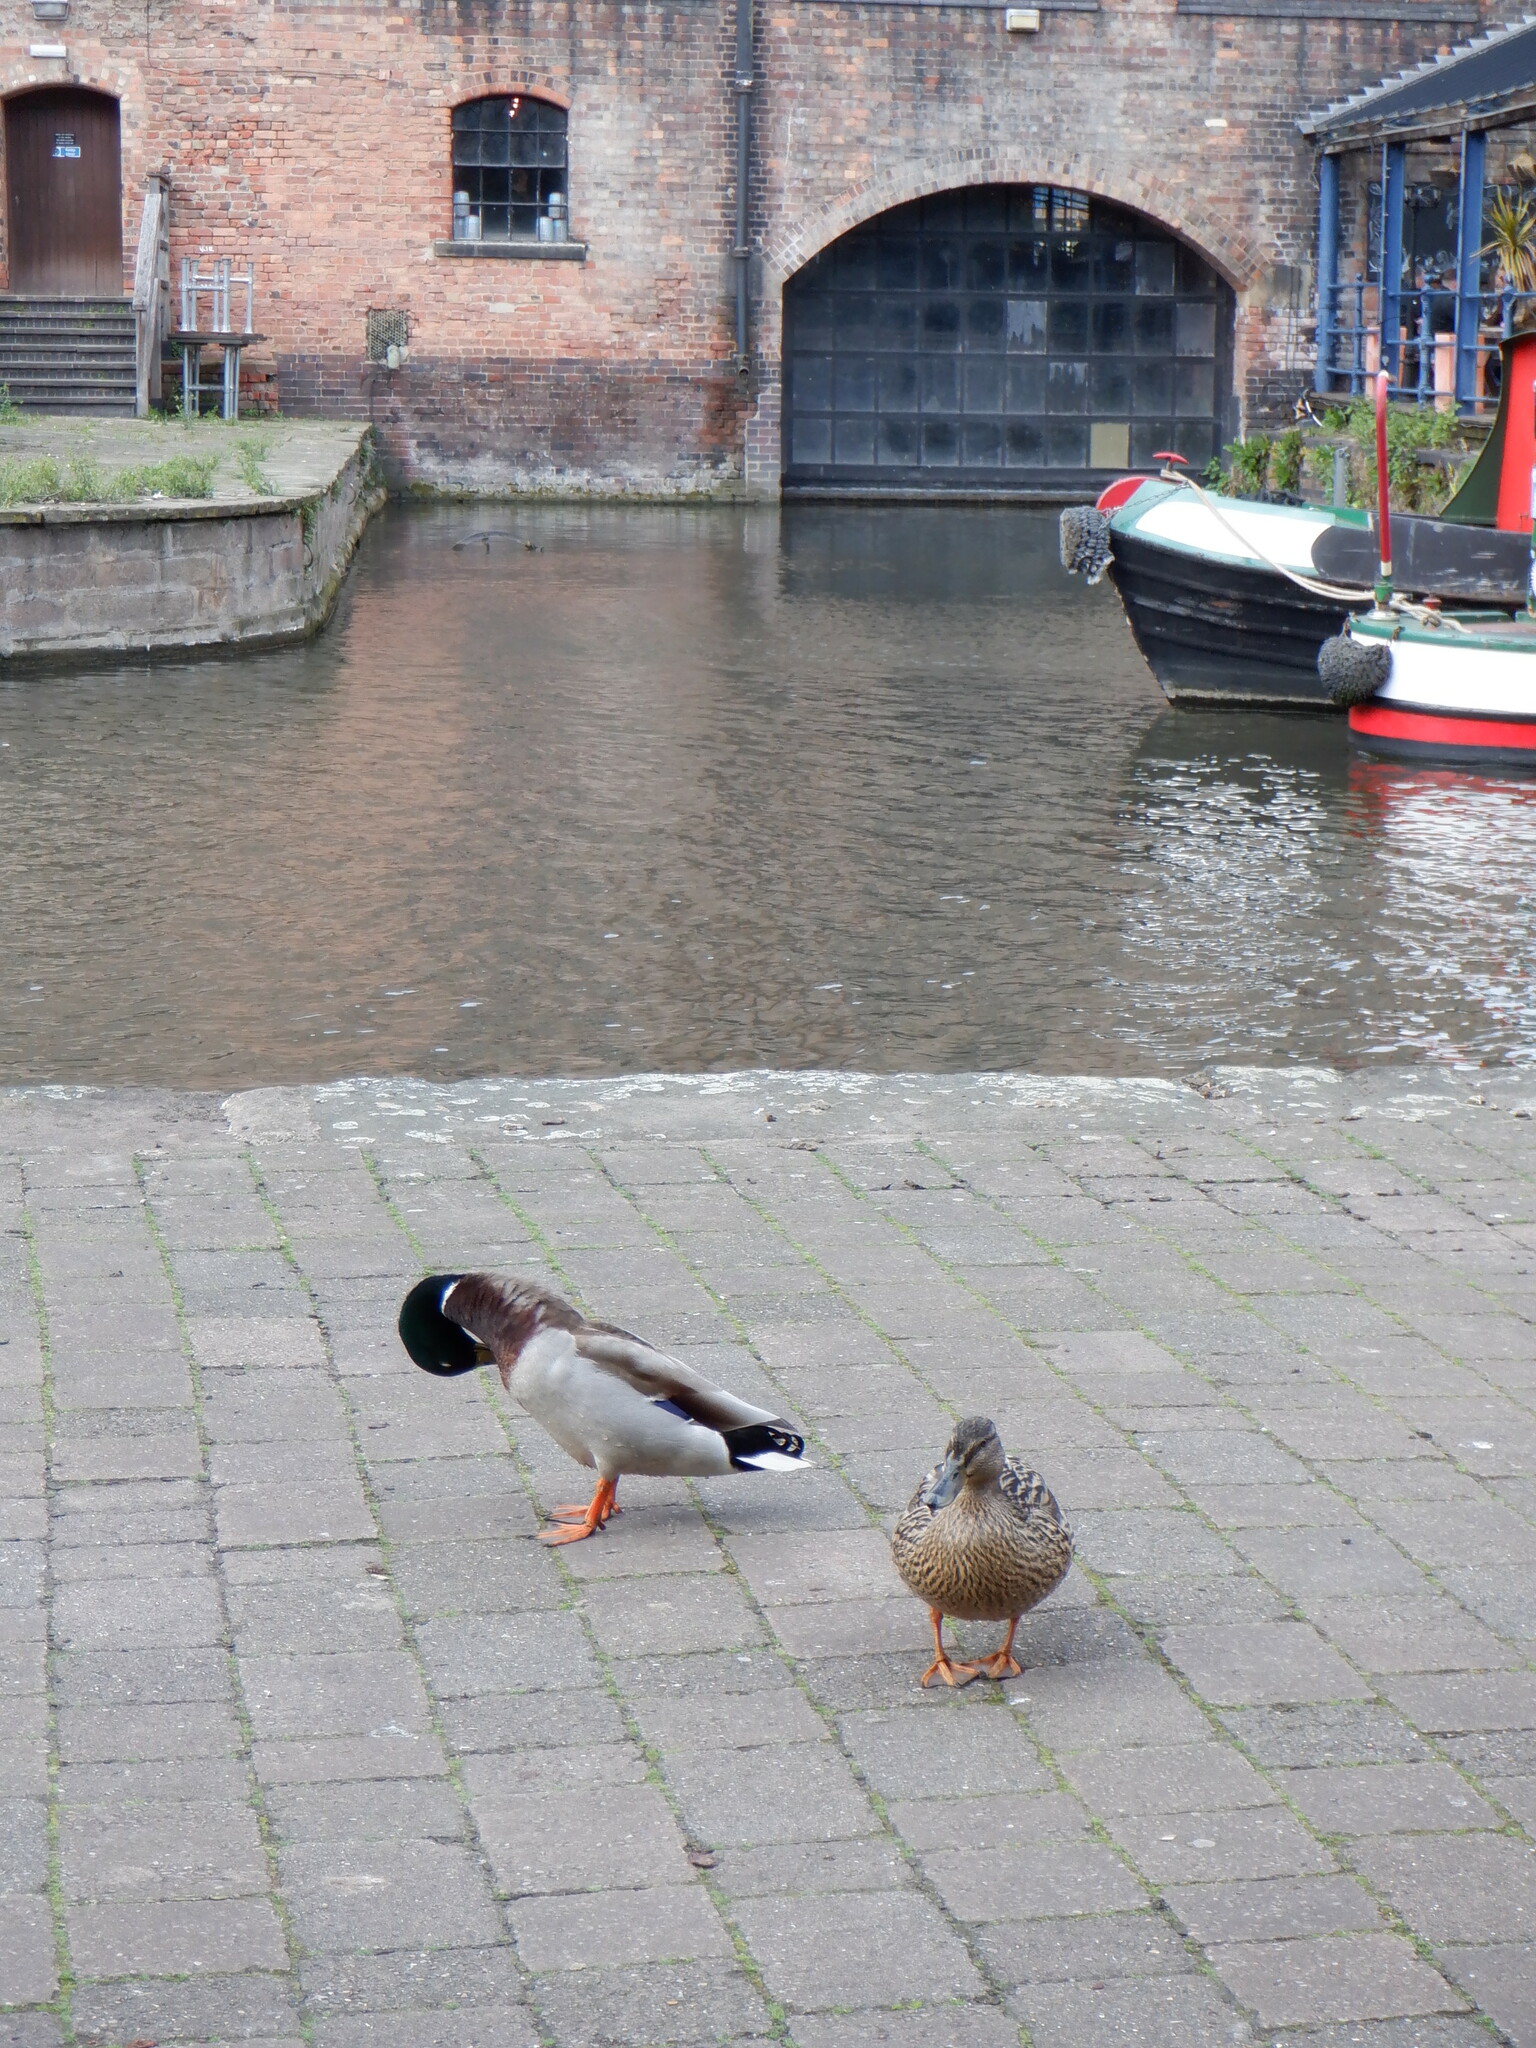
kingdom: Animalia
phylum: Chordata
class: Aves
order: Anseriformes
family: Anatidae
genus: Anas
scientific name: Anas platyrhynchos
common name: Mallard
